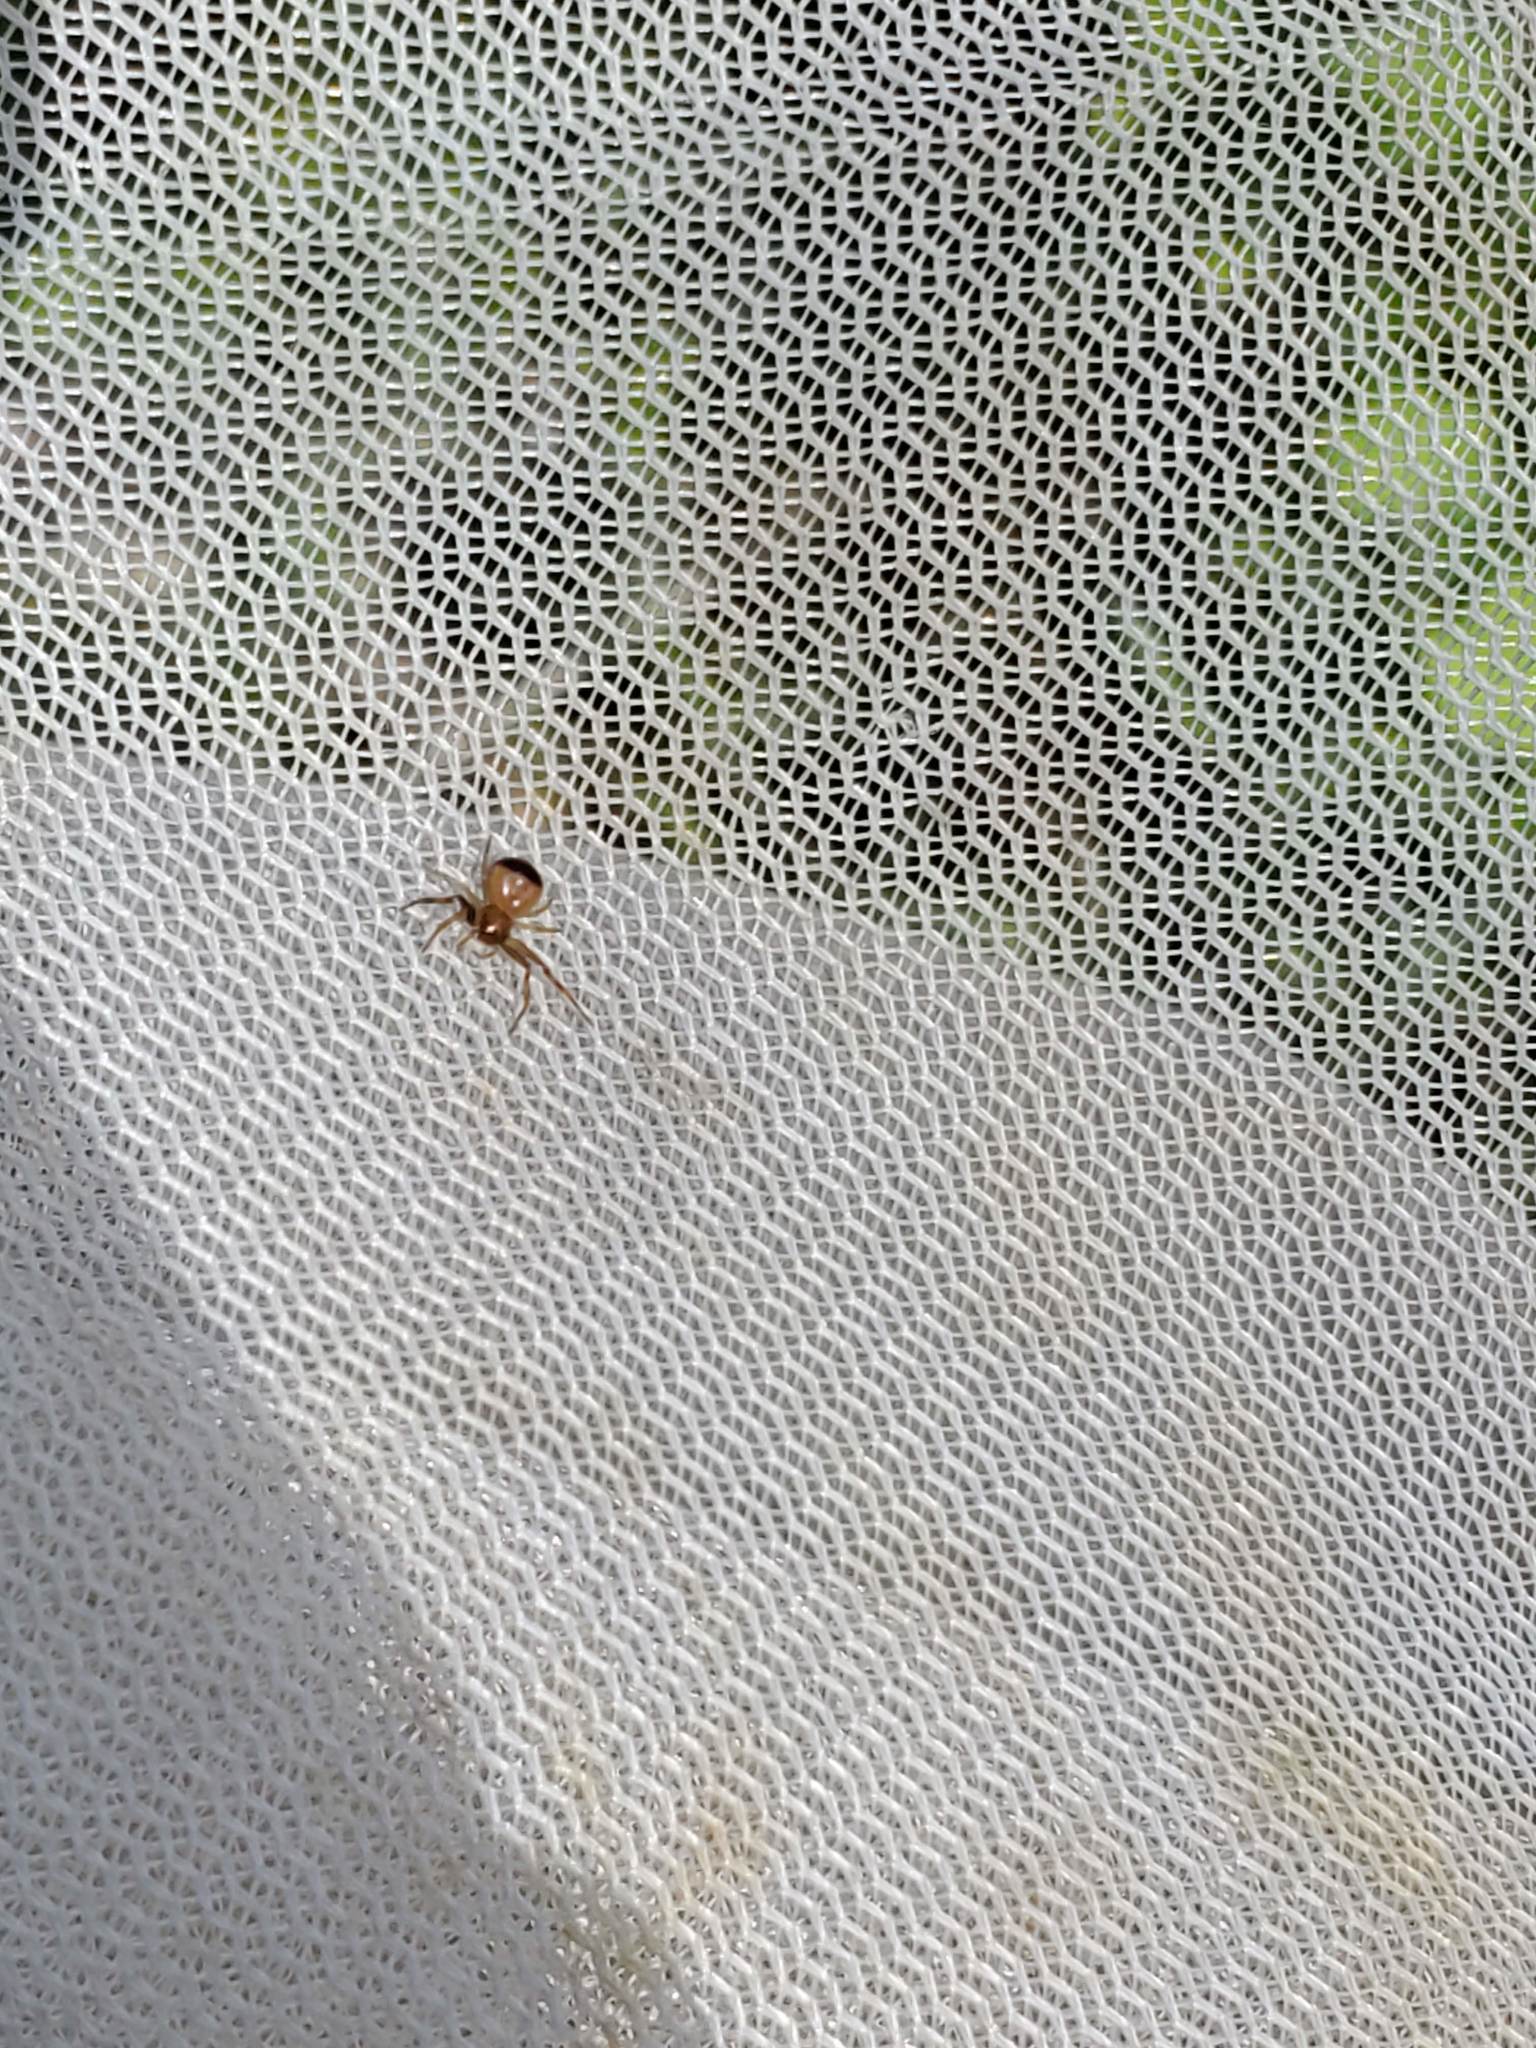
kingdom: Animalia
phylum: Arthropoda
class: Arachnida
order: Araneae
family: Thomisidae
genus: Synema
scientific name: Synema parvulum
